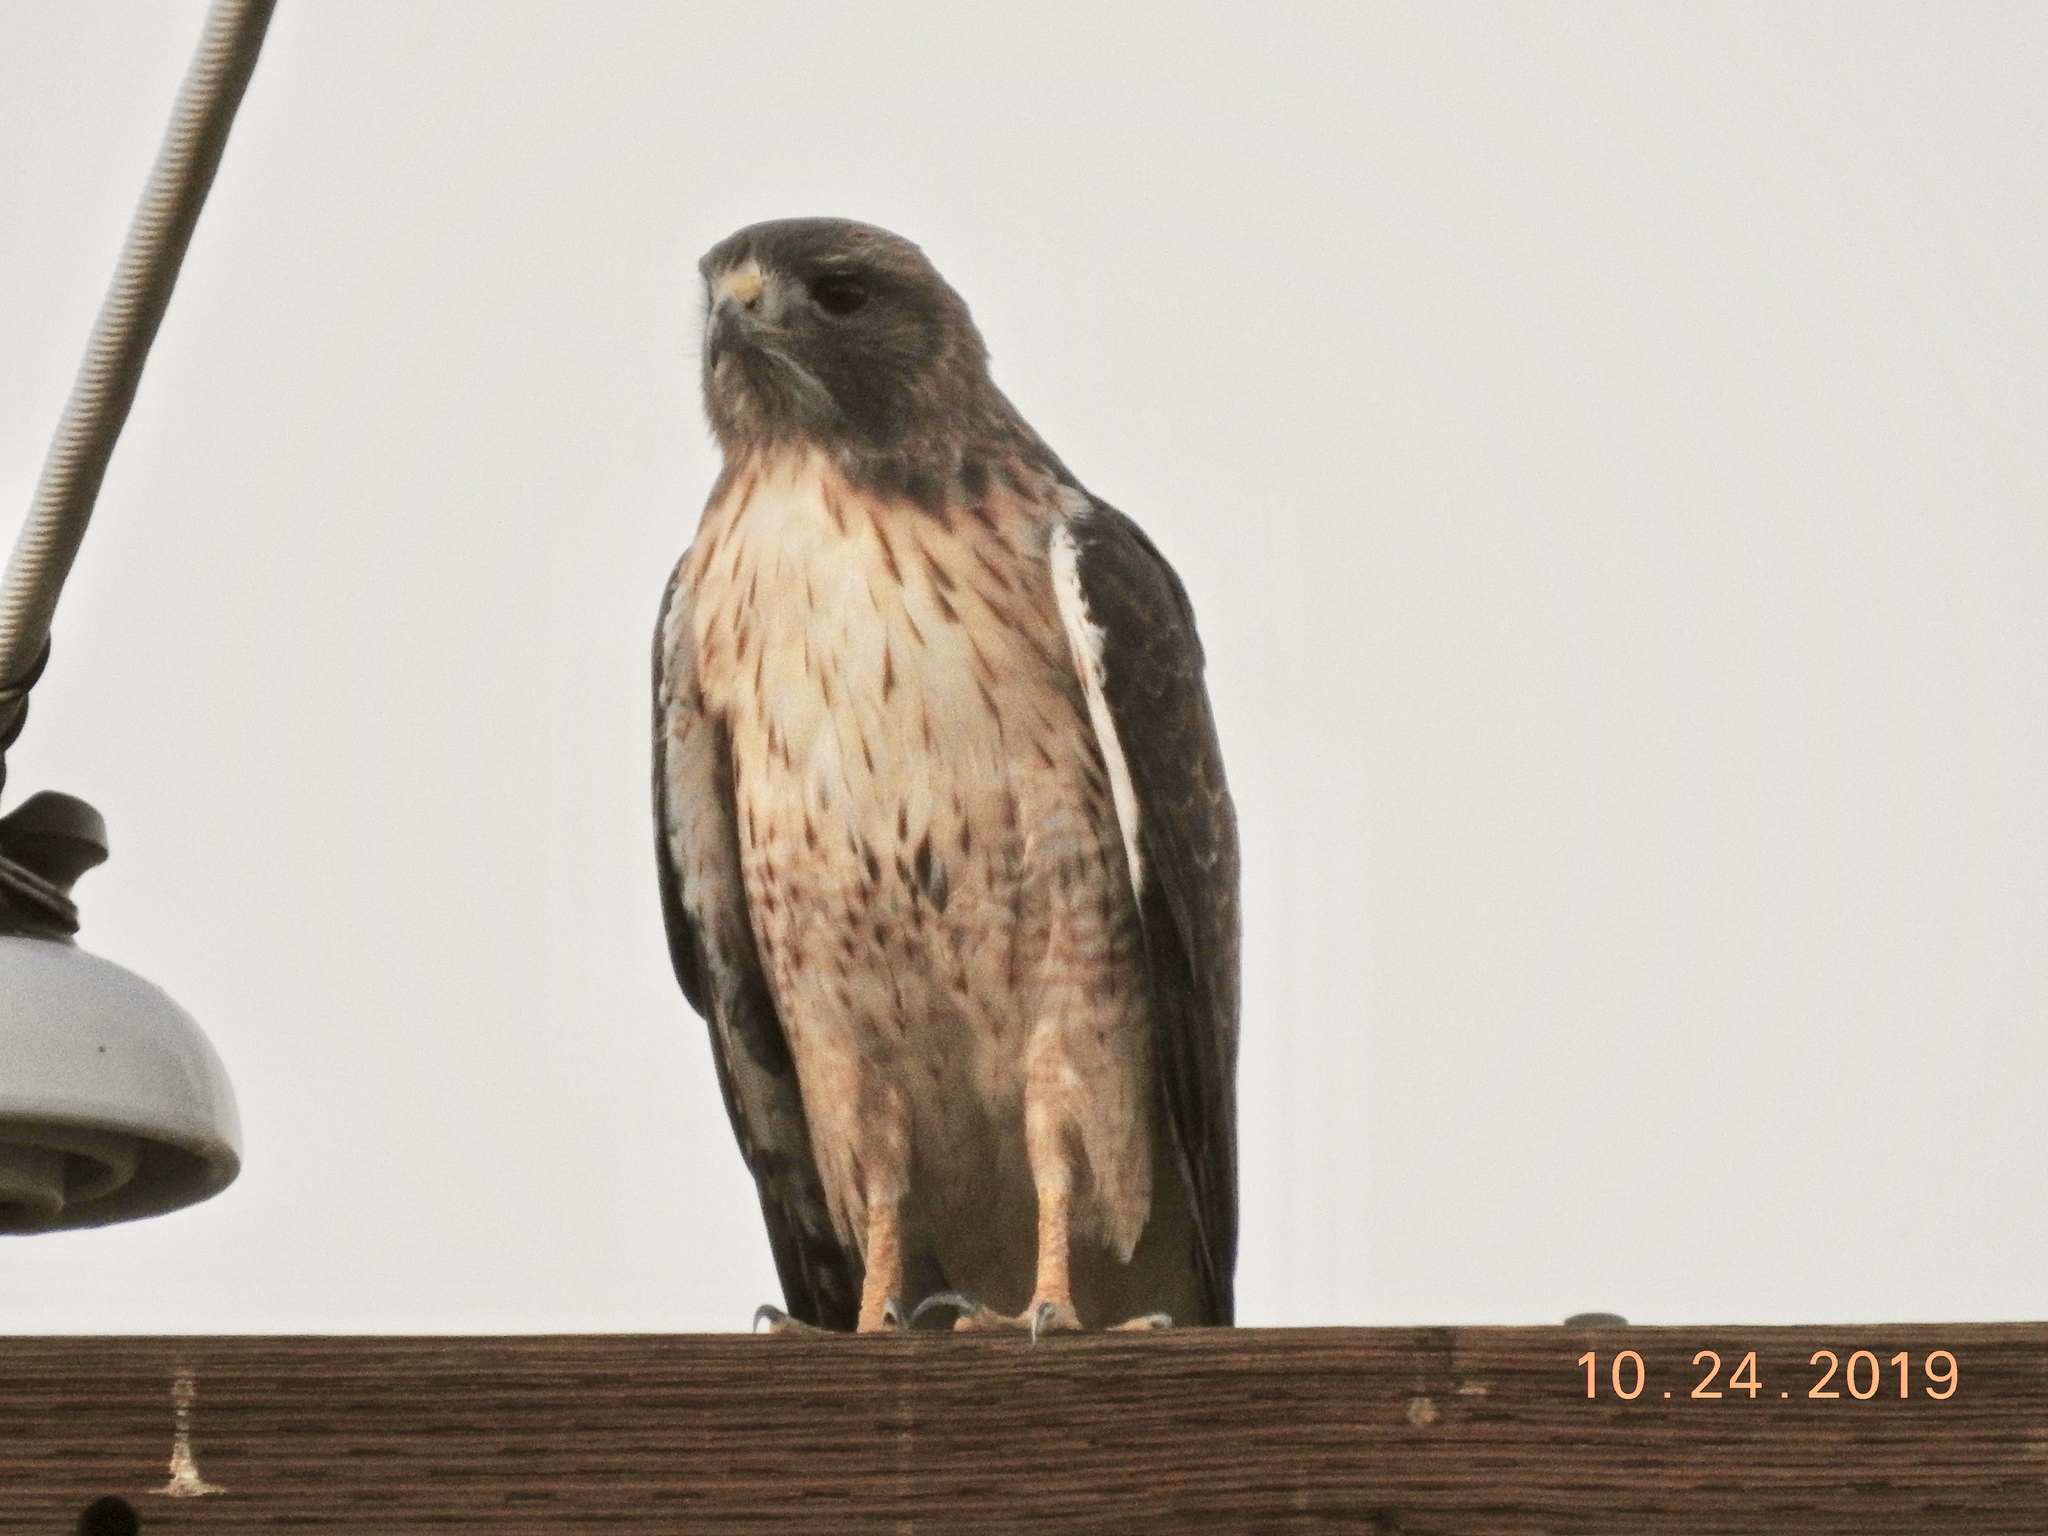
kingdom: Animalia
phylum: Chordata
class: Aves
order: Accipitriformes
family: Accipitridae
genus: Buteo
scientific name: Buteo jamaicensis
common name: Red-tailed hawk
